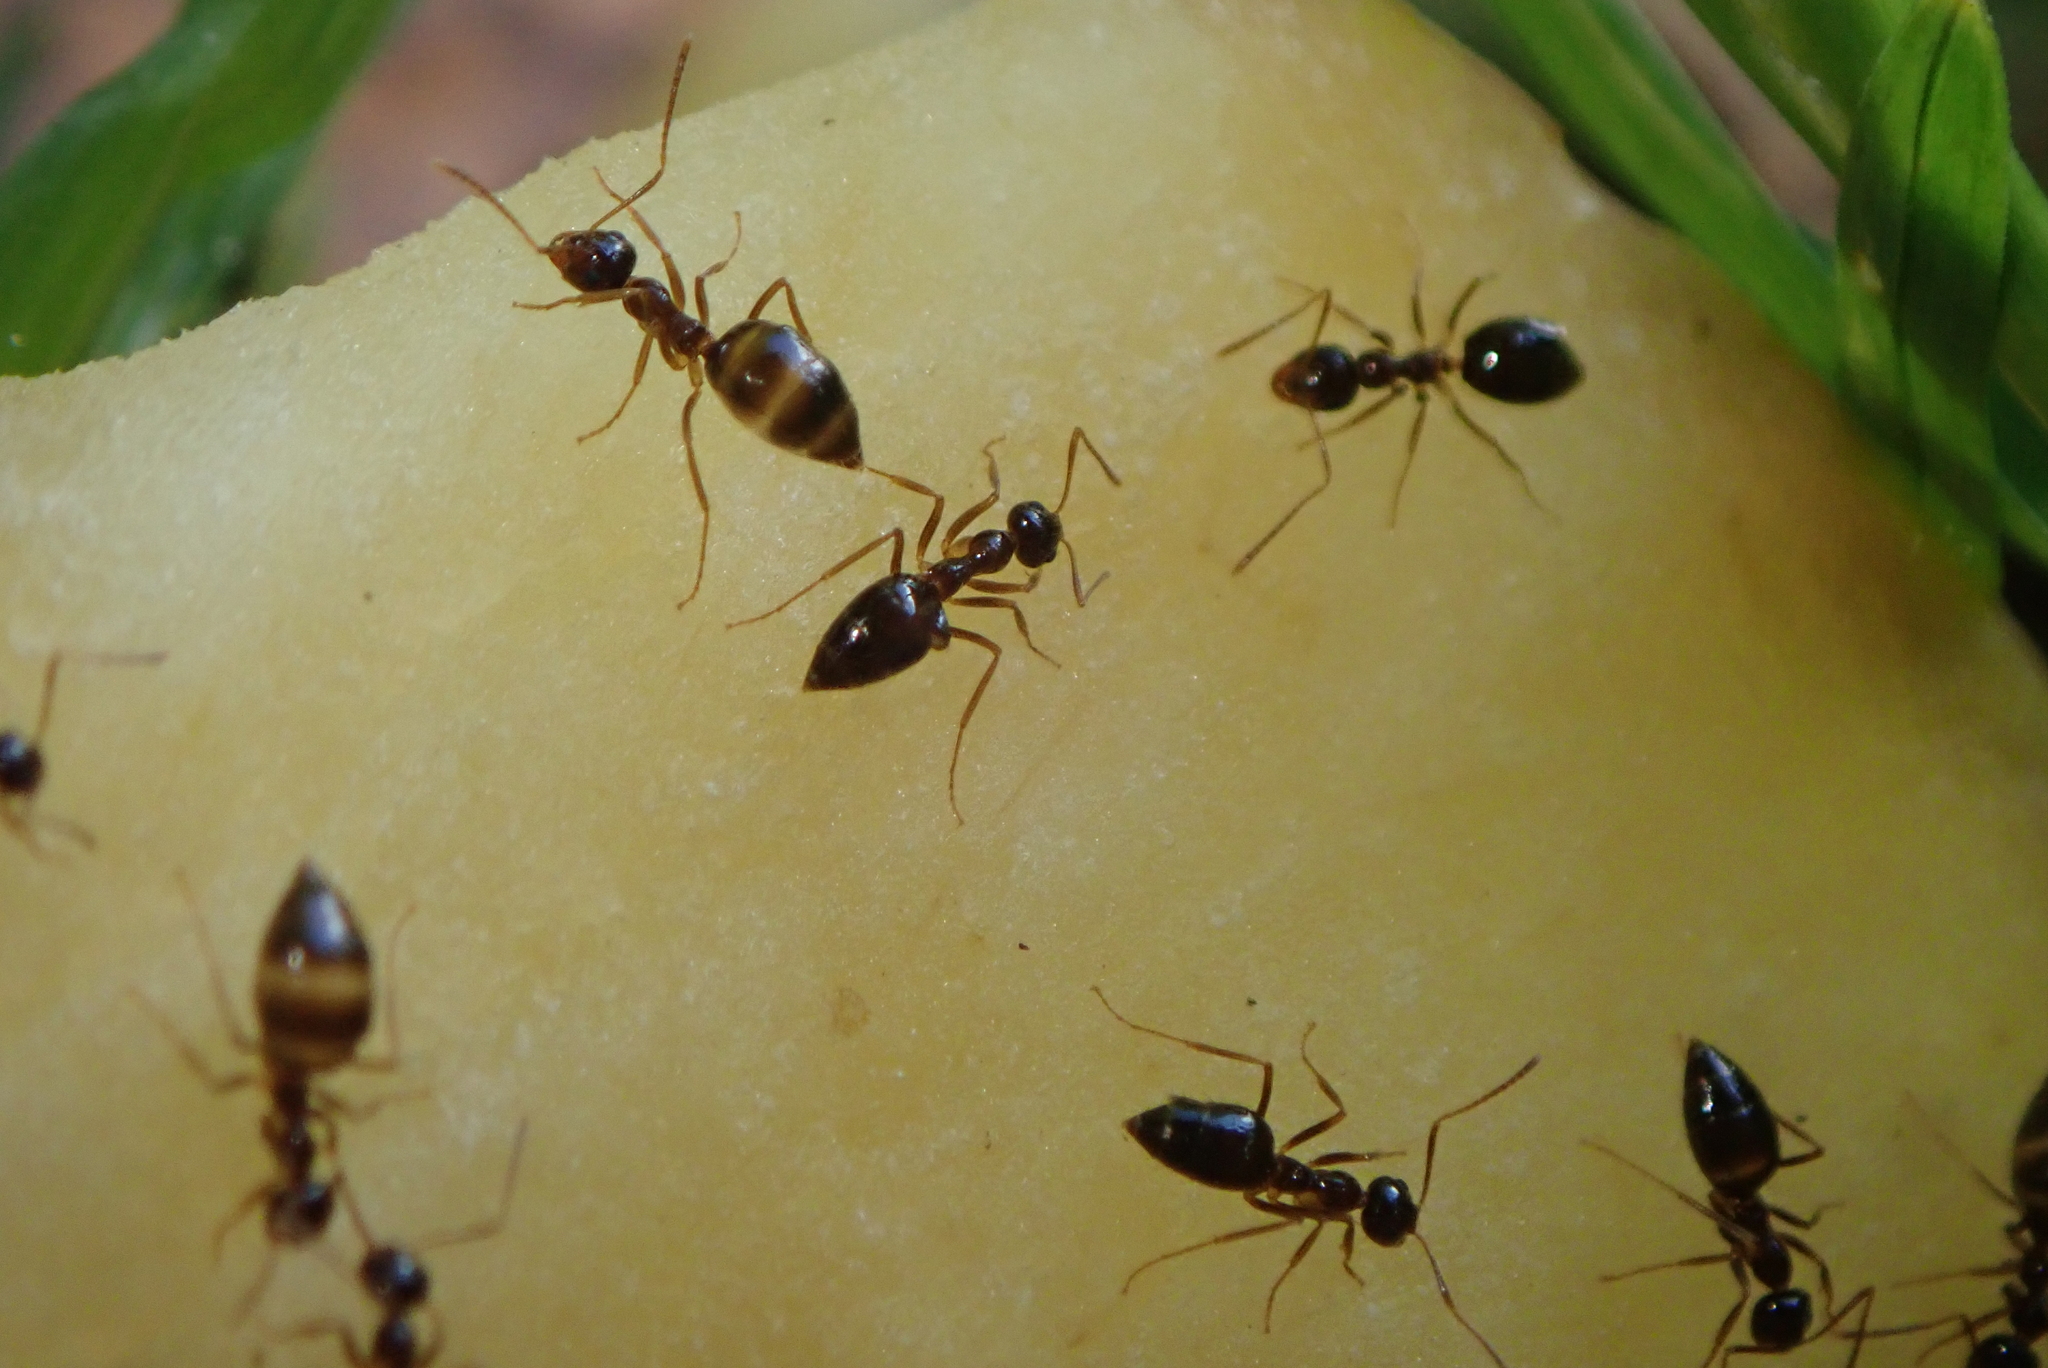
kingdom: Animalia
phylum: Arthropoda
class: Insecta
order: Hymenoptera
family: Formicidae
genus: Prenolepis
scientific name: Prenolepis imparis
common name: Small honey ant
